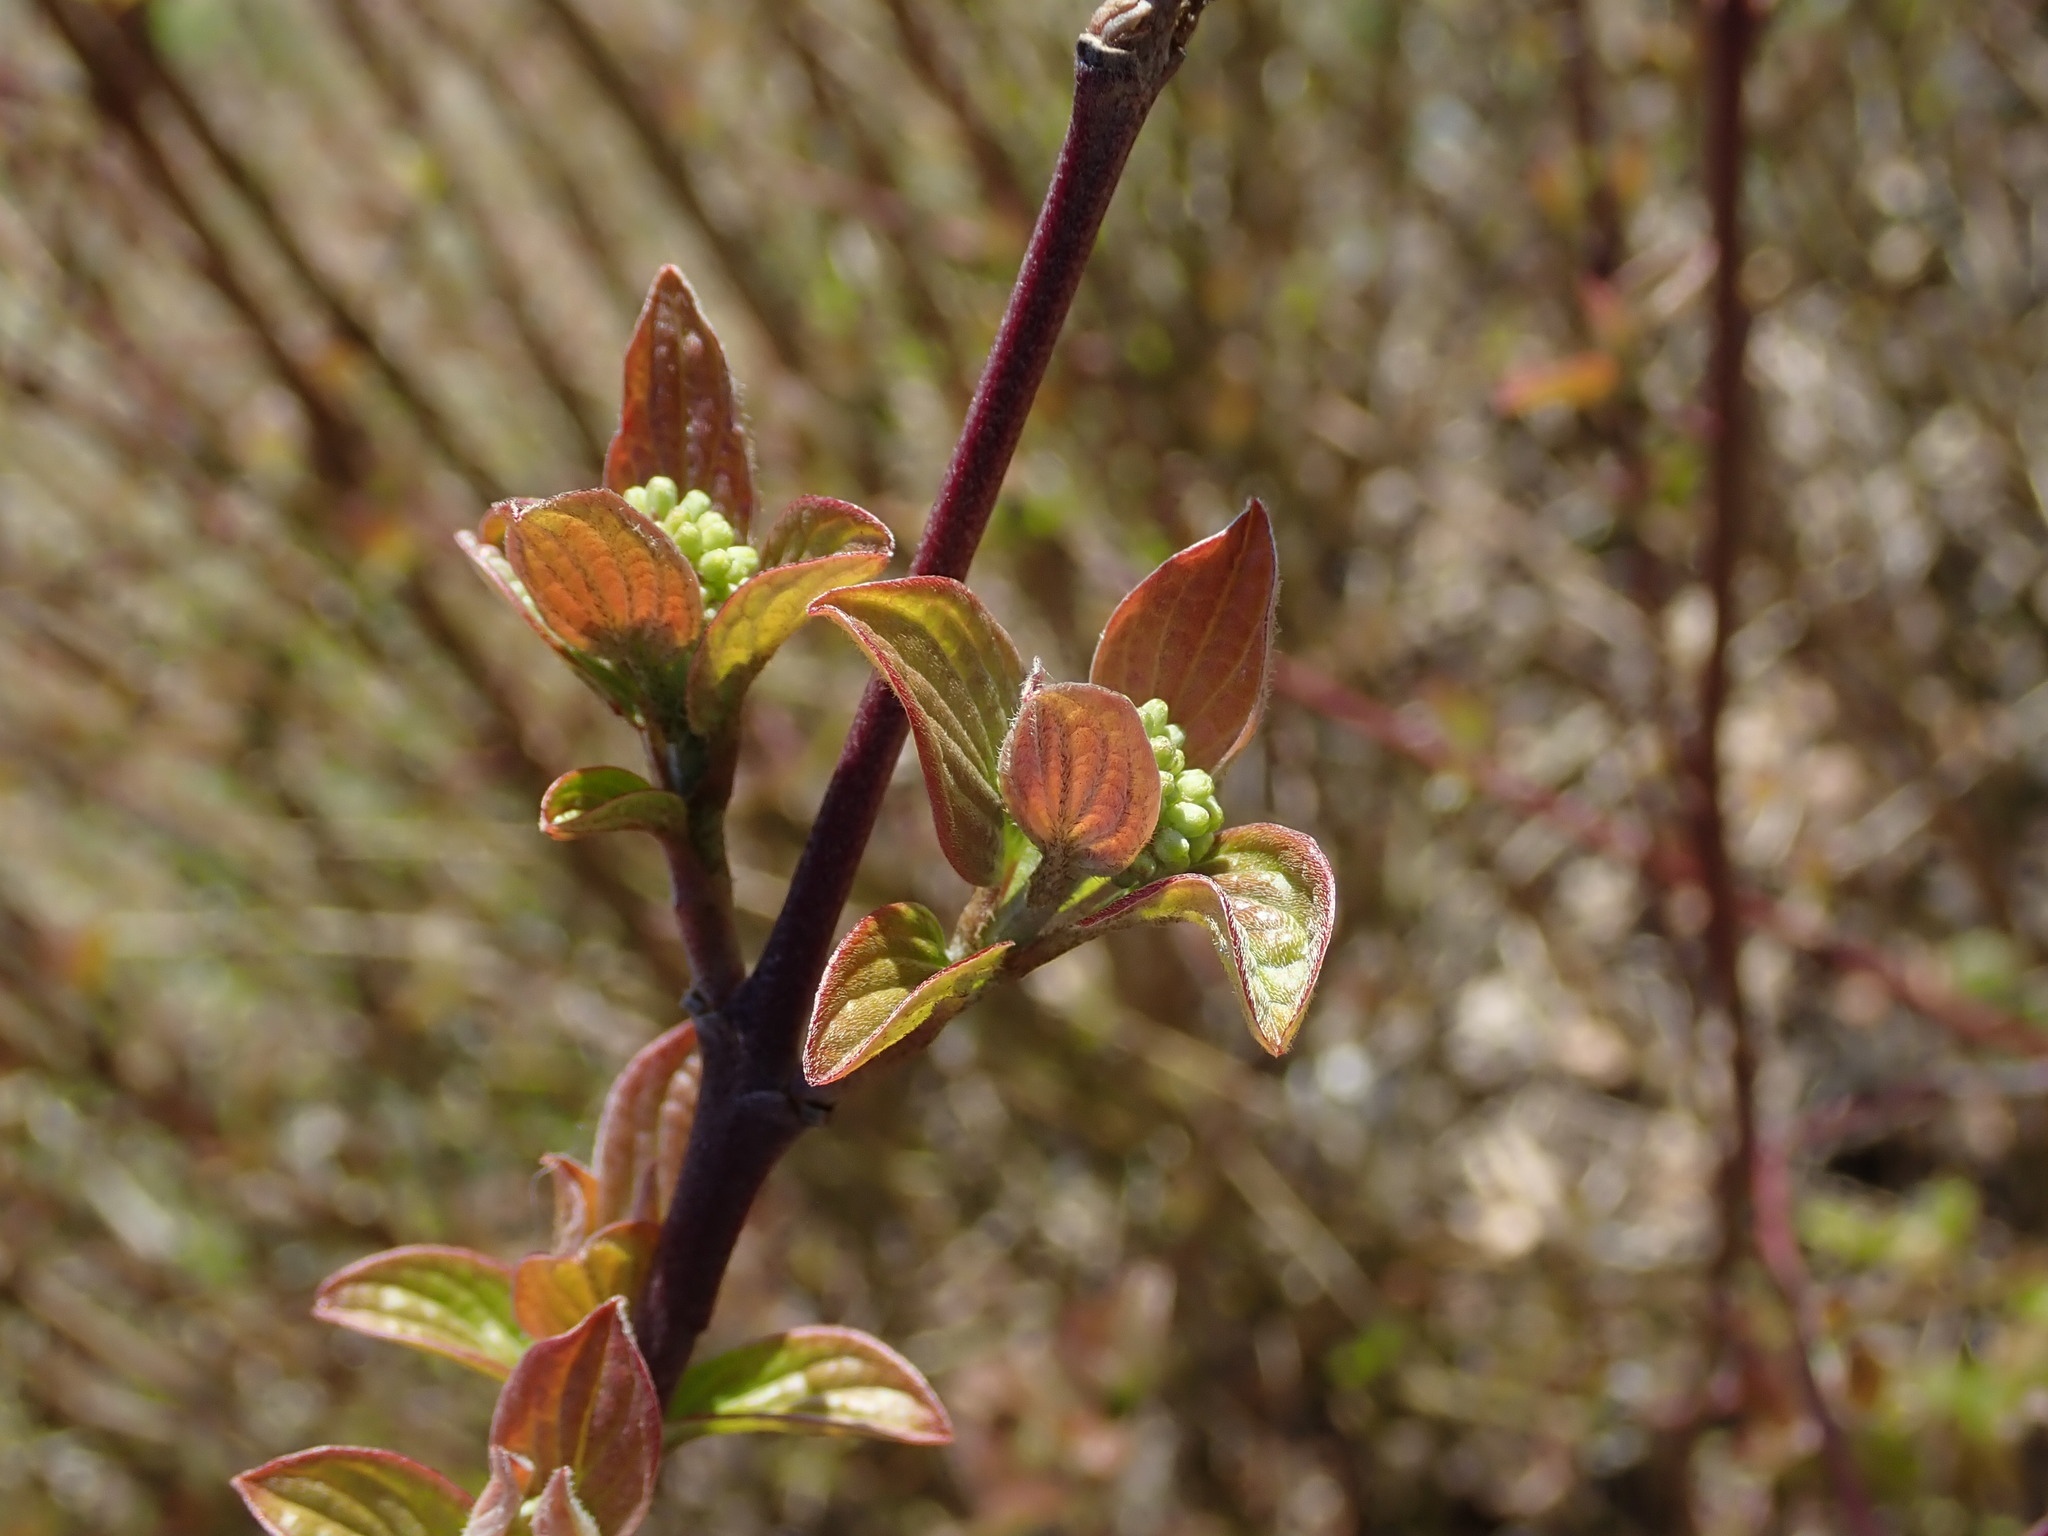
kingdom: Plantae
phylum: Tracheophyta
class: Magnoliopsida
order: Cornales
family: Cornaceae
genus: Cornus
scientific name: Cornus sanguinea
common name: Dogwood
